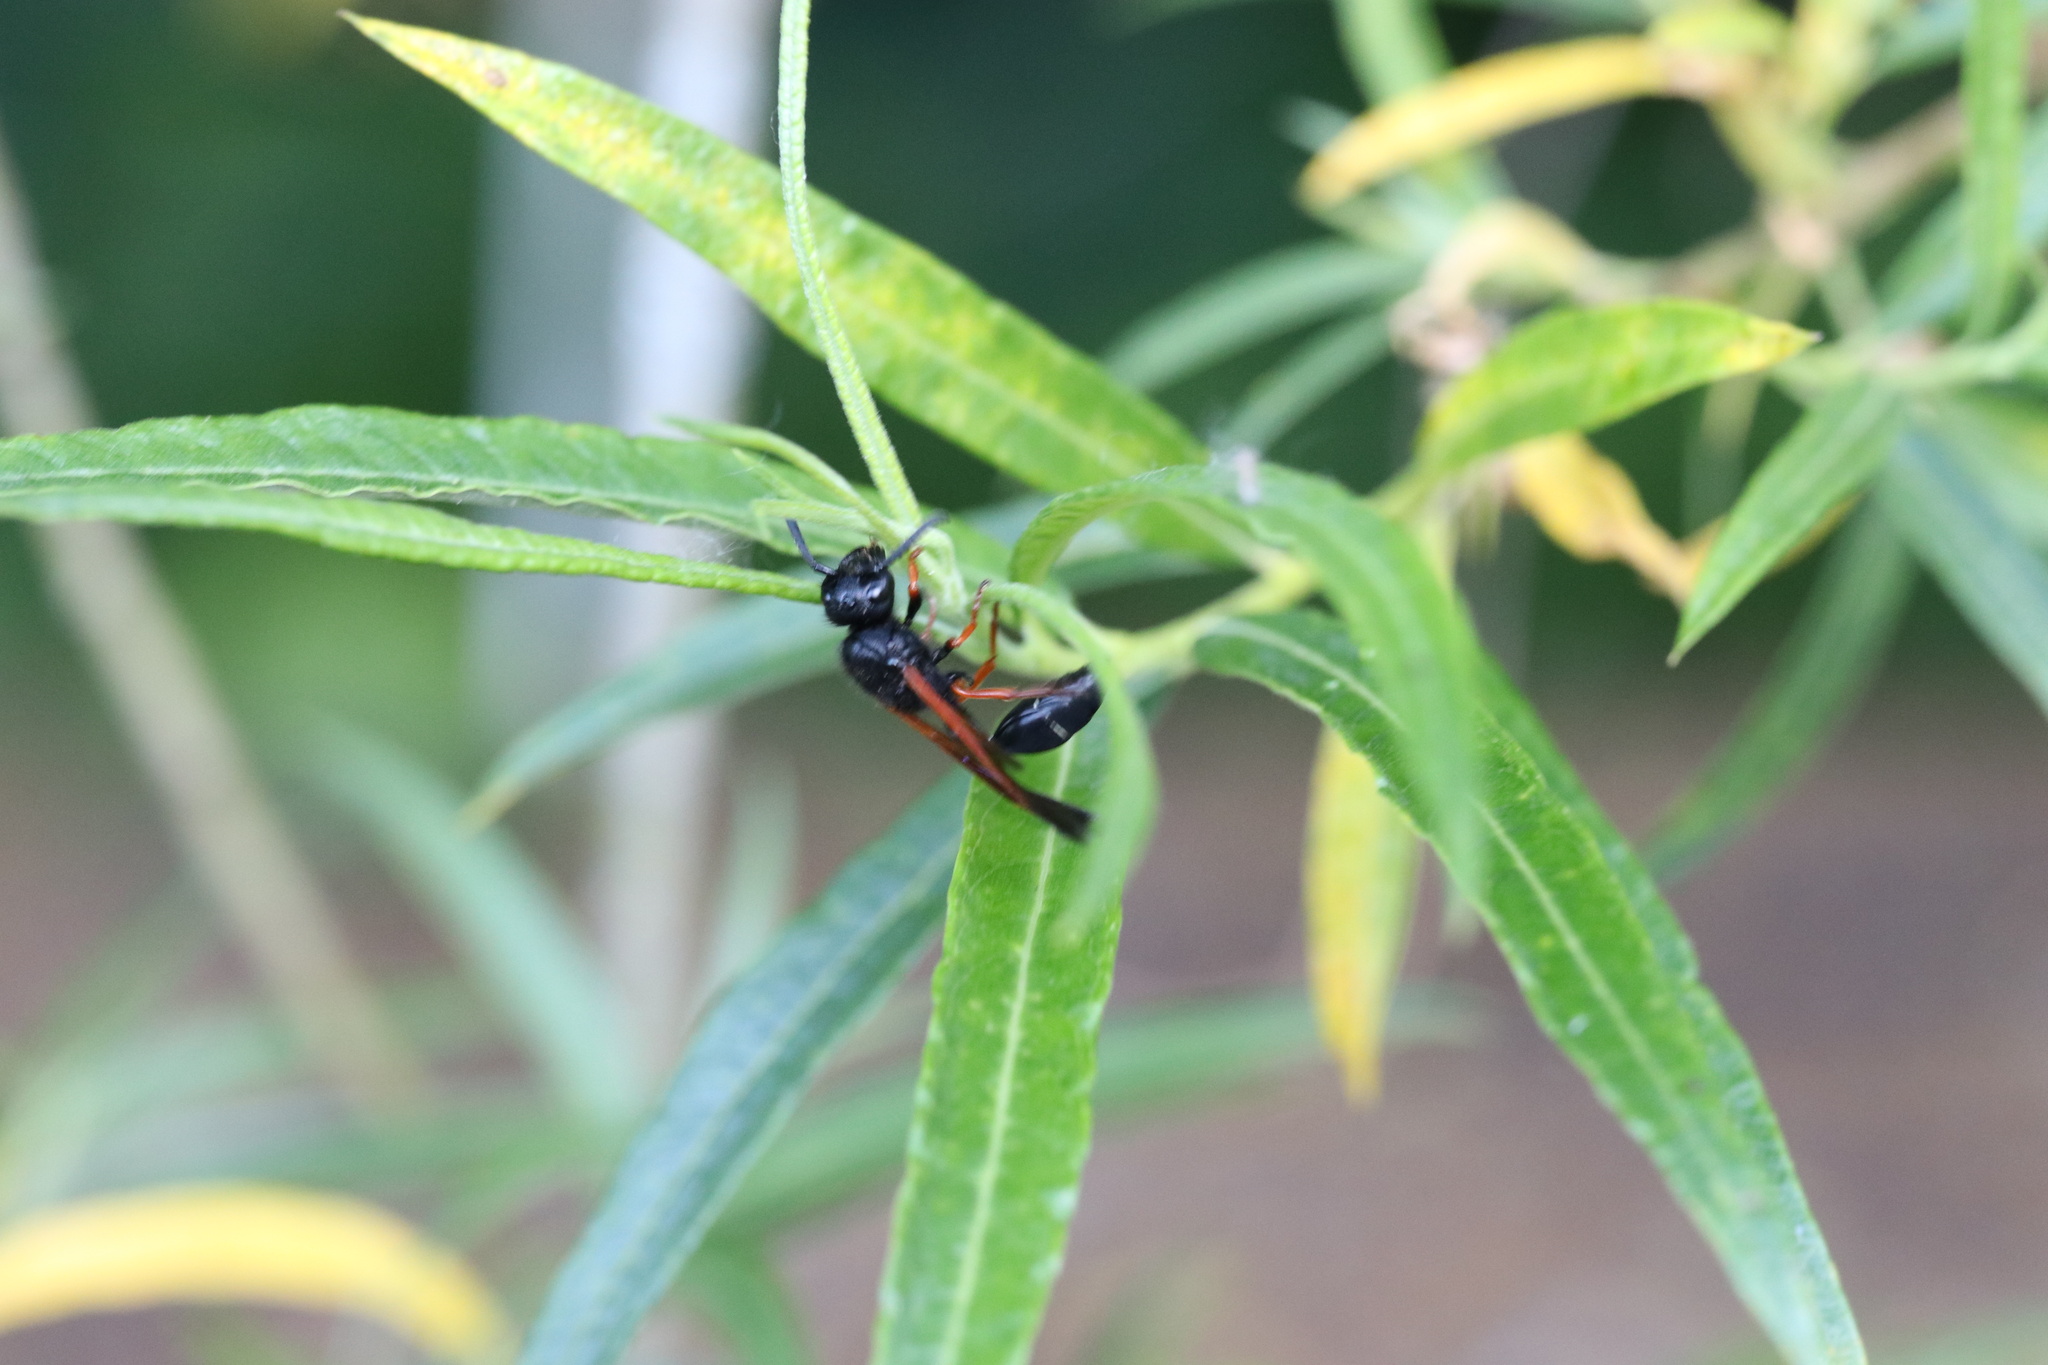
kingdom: Animalia
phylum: Arthropoda
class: Insecta
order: Hymenoptera
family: Eumenidae
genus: Protodiscoelius
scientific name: Protodiscoelius merula
